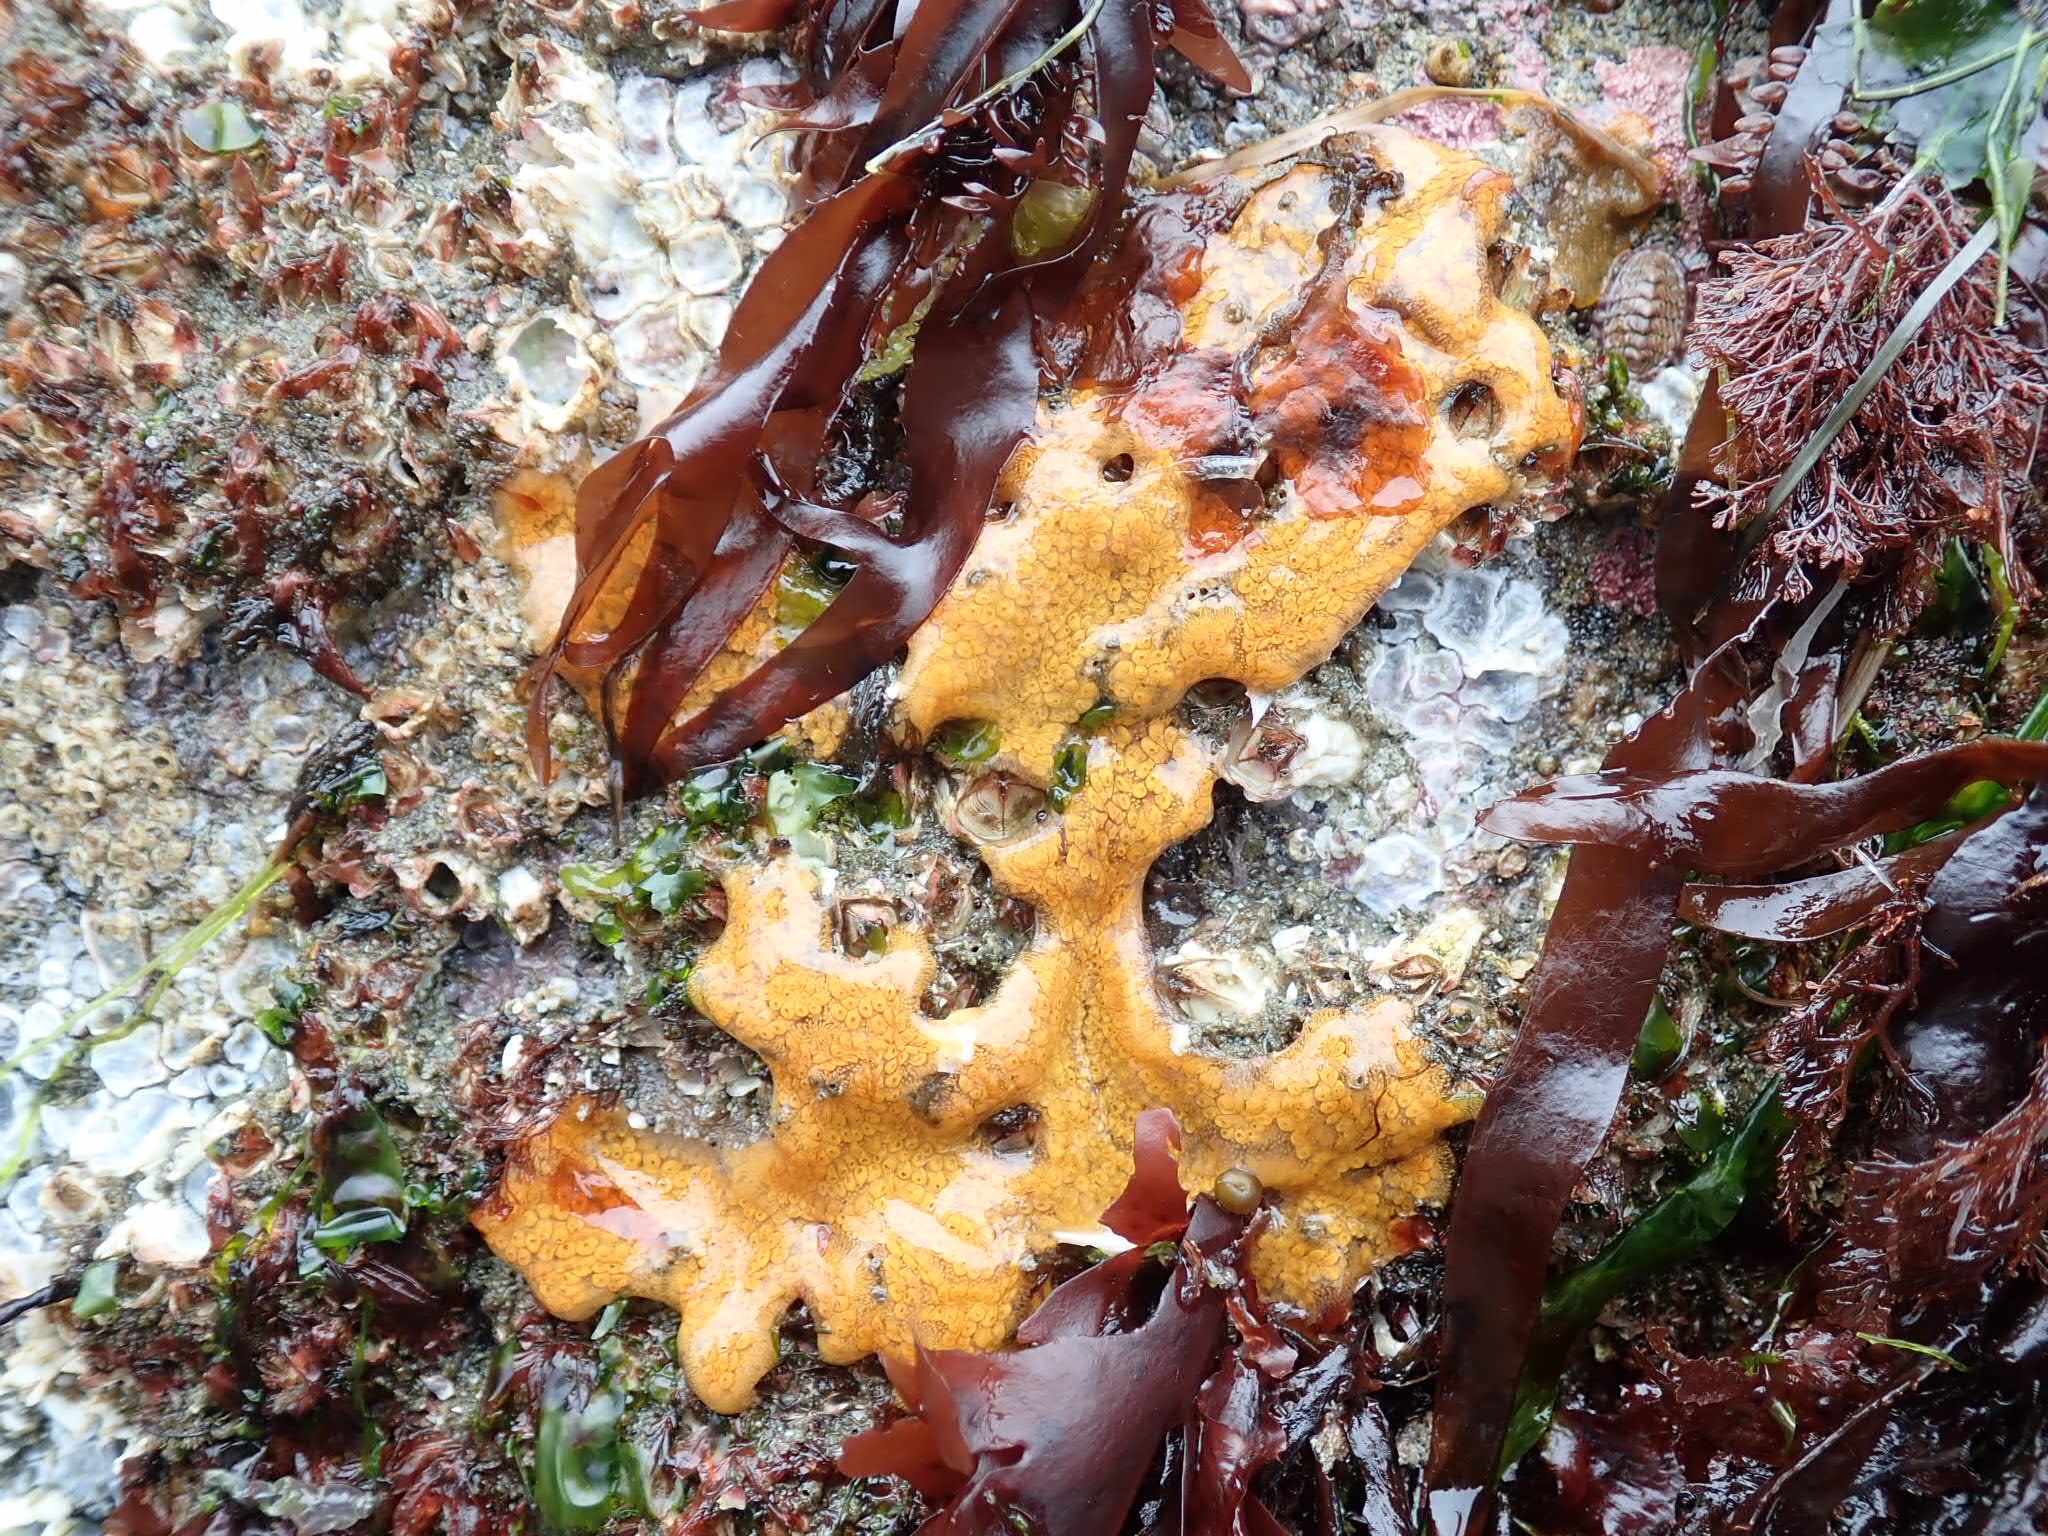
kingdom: Animalia
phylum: Chordata
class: Ascidiacea
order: Stolidobranchia
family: Styelidae
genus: Botrylloides
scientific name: Botrylloides violaceus
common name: Colonial sea squirt
